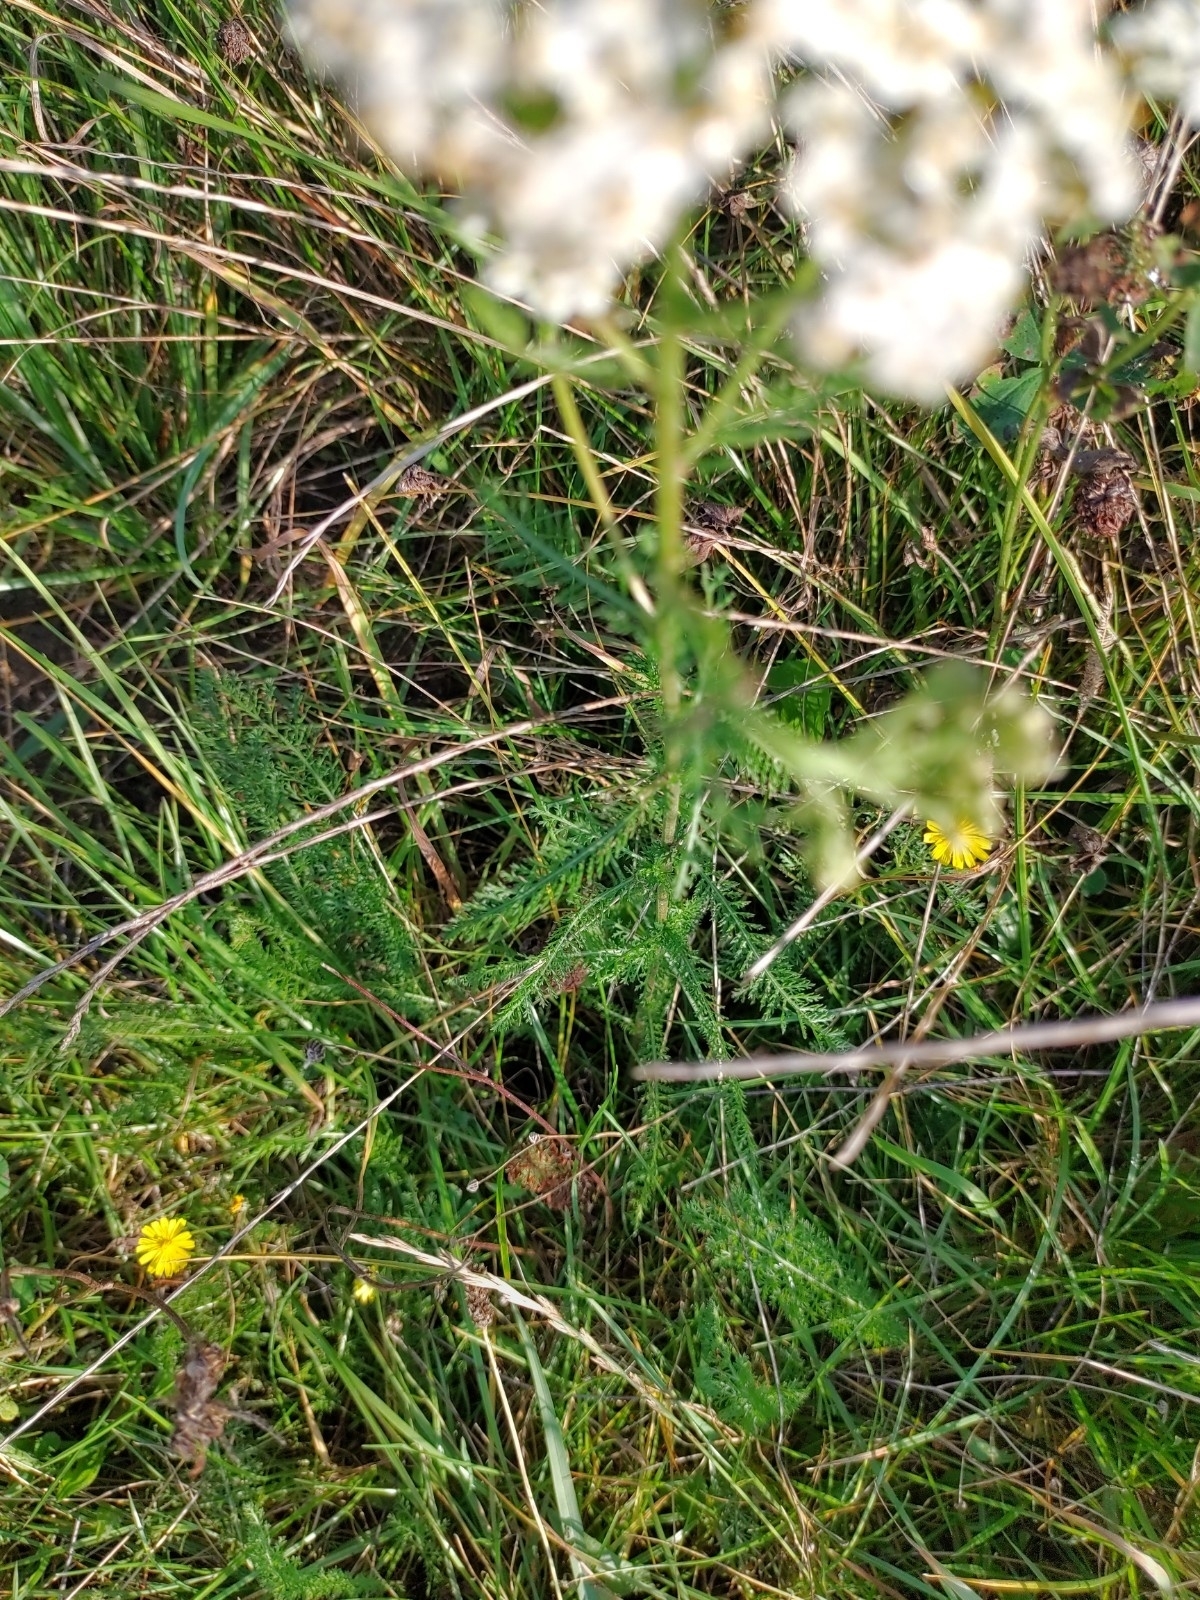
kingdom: Plantae
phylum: Tracheophyta
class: Magnoliopsida
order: Asterales
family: Asteraceae
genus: Achillea
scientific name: Achillea millefolium
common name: Yarrow
